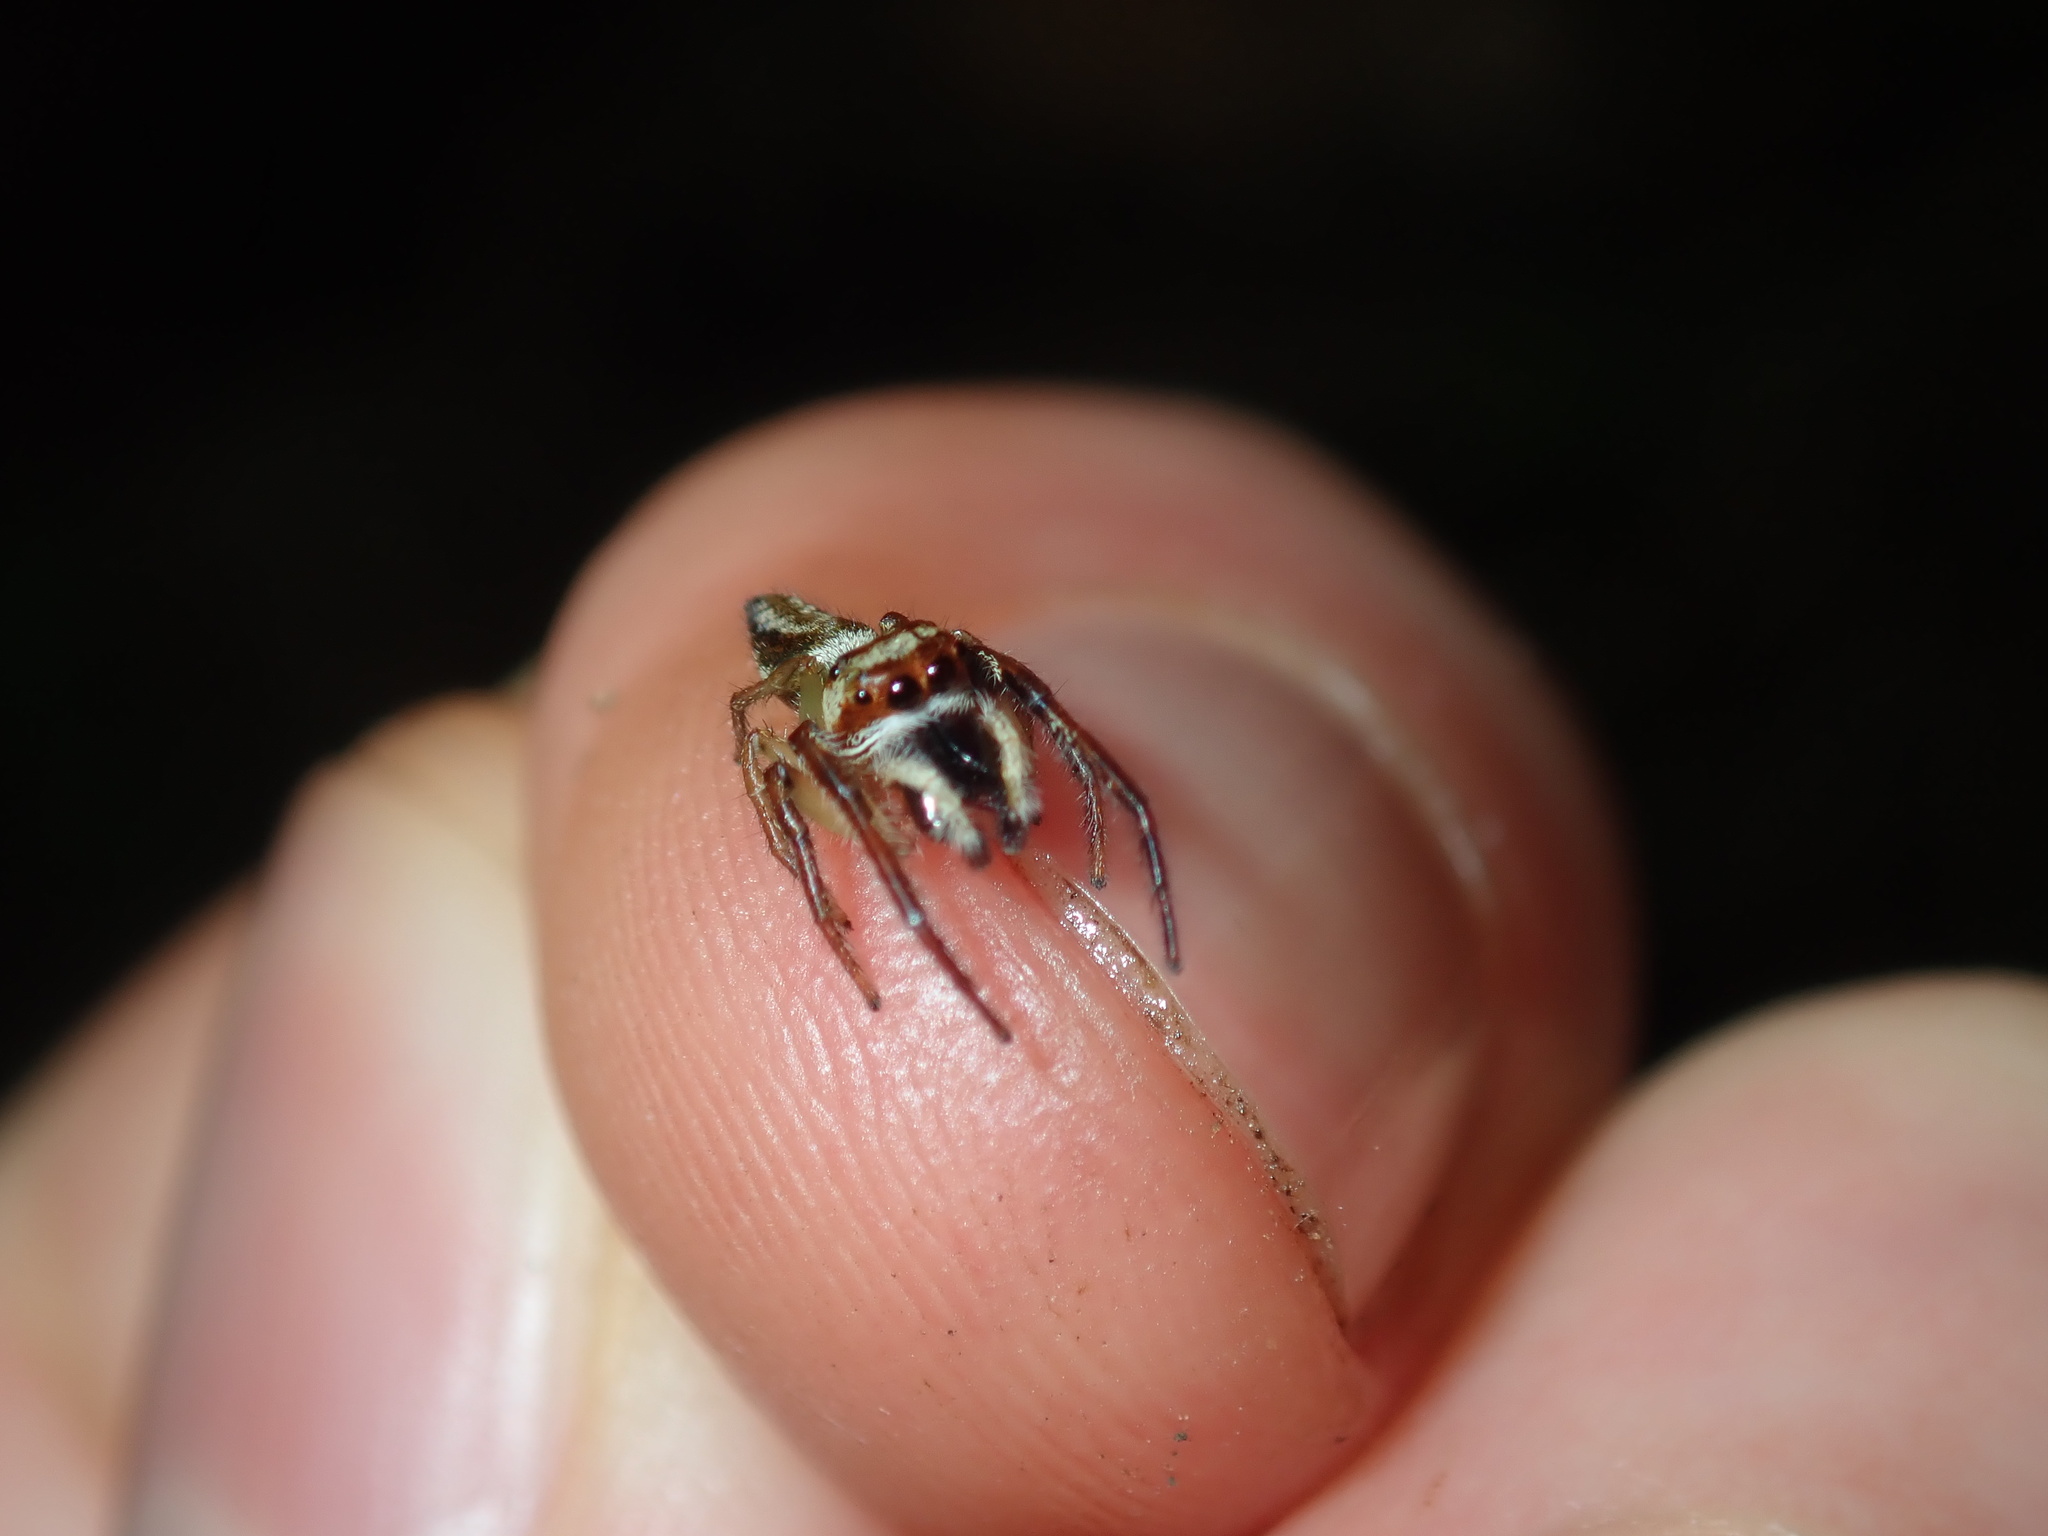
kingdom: Animalia
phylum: Arthropoda
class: Arachnida
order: Araneae
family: Salticidae
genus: Opisthoncus
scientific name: Opisthoncus abnormis
